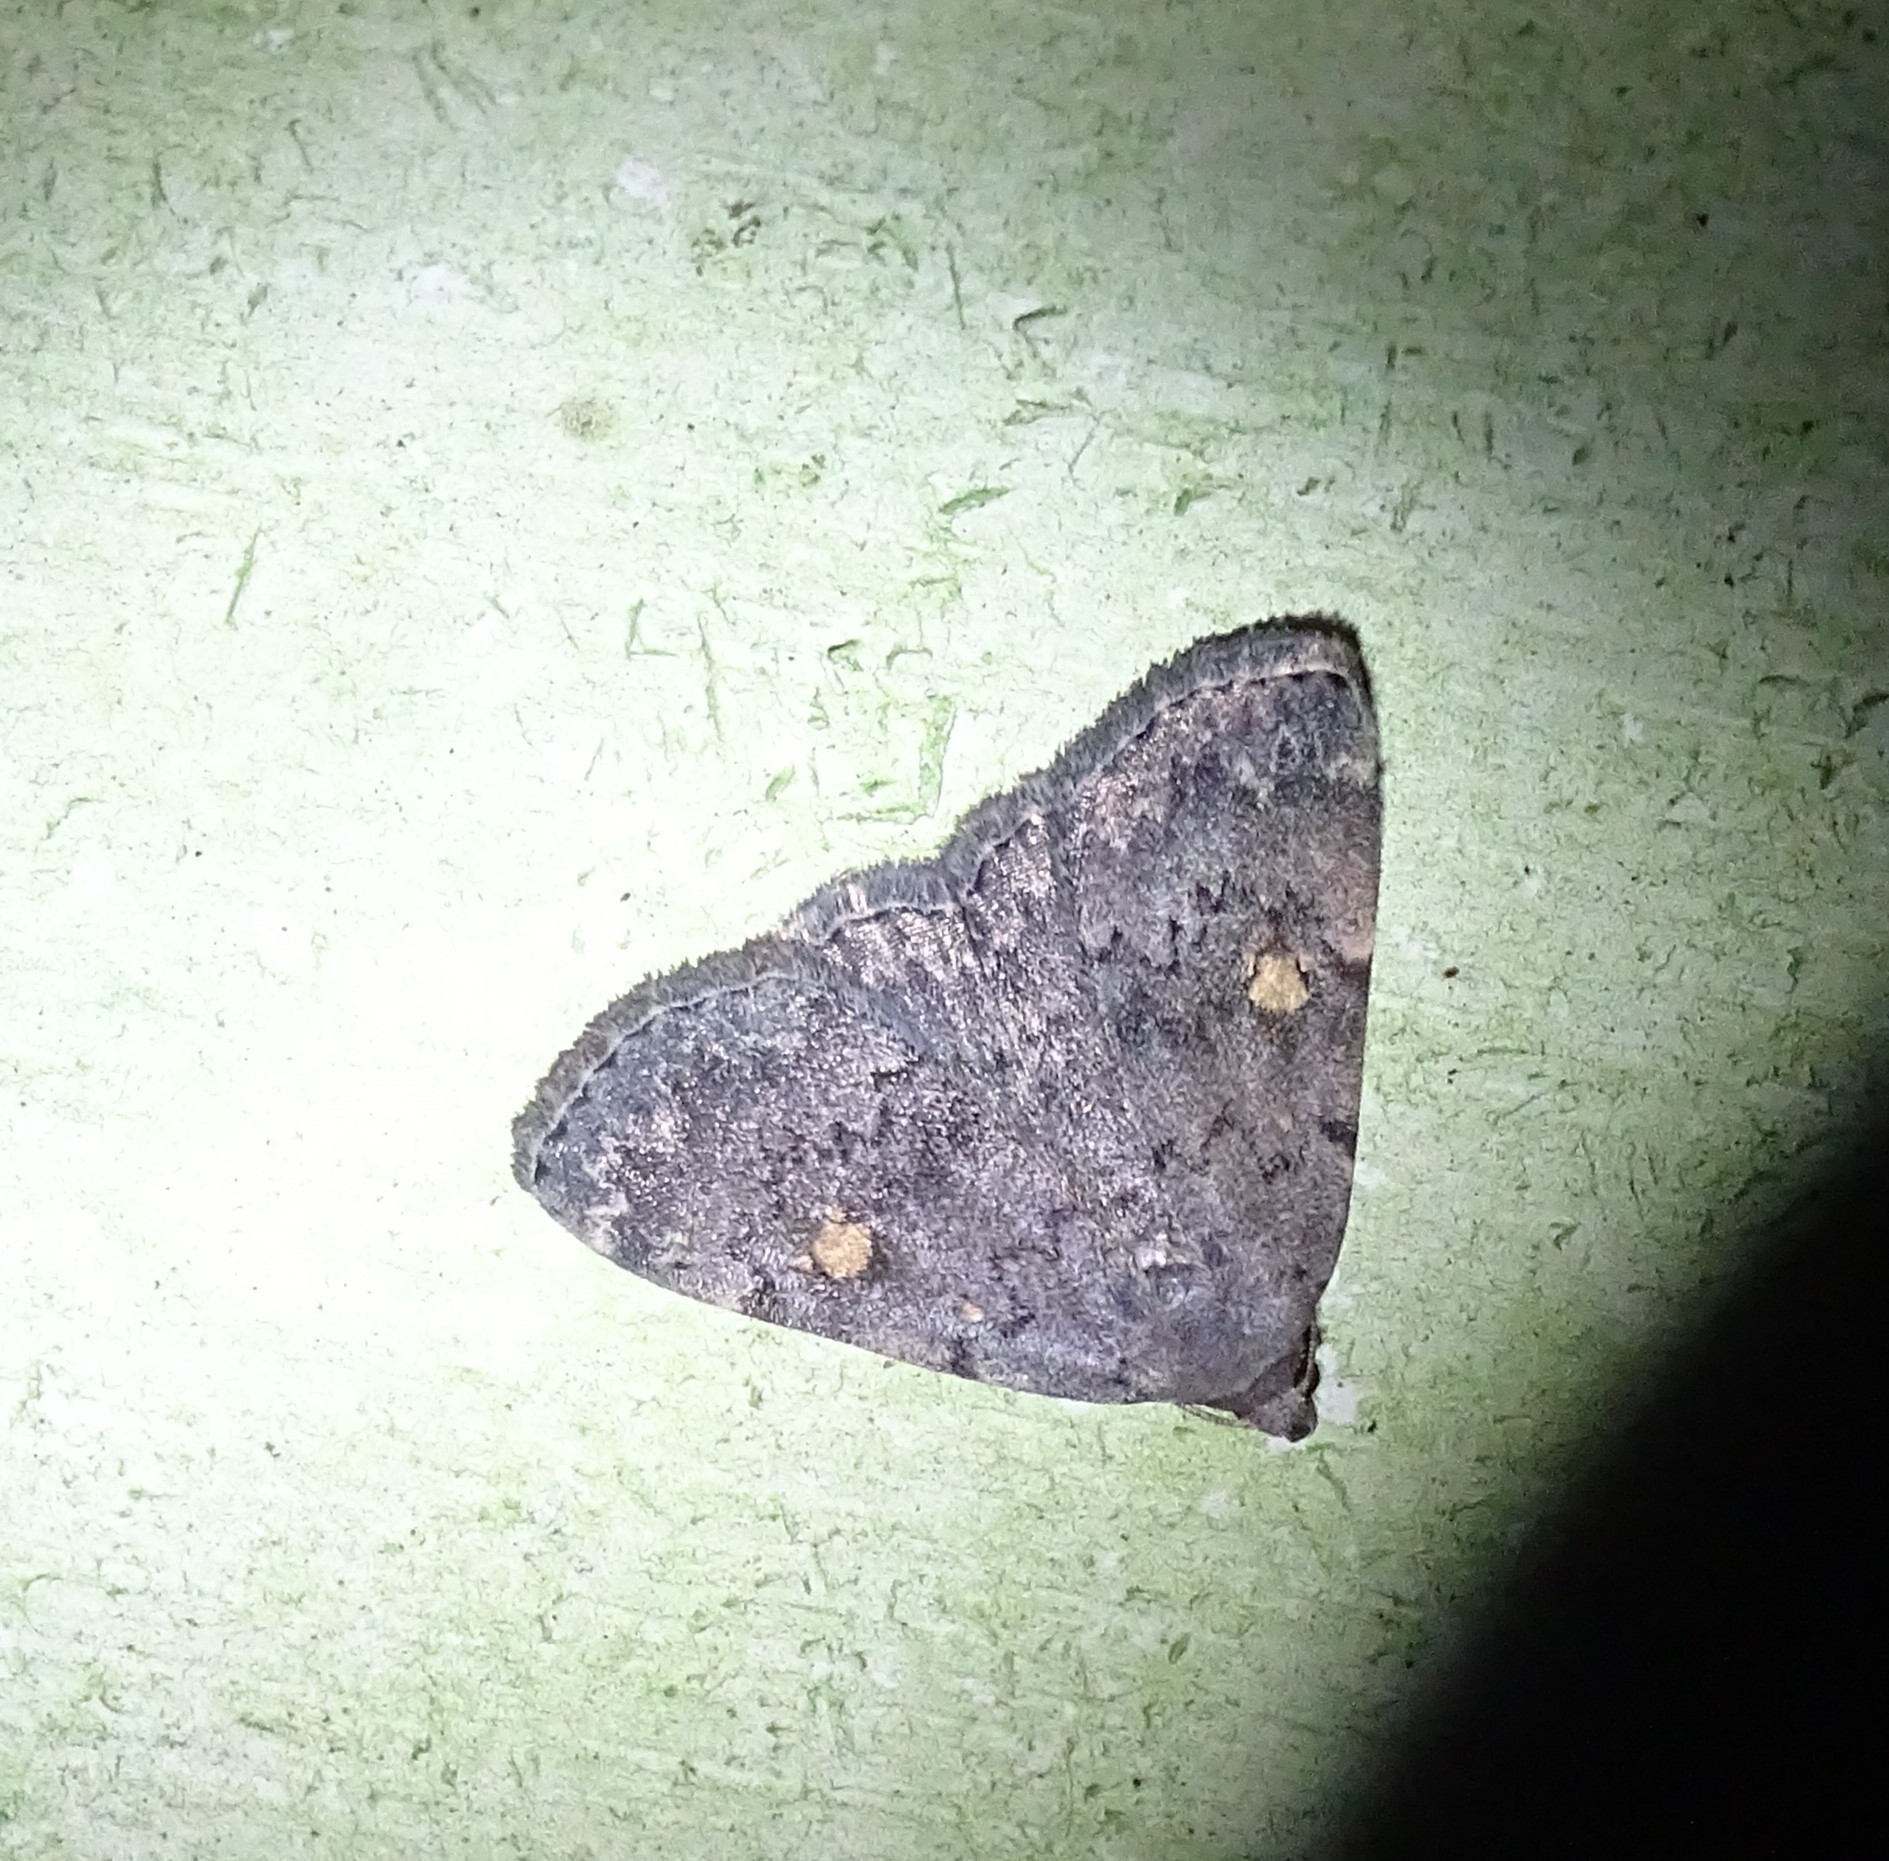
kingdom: Animalia
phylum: Arthropoda
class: Insecta
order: Lepidoptera
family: Erebidae
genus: Idia
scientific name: Idia aemula
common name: Common idia moth
